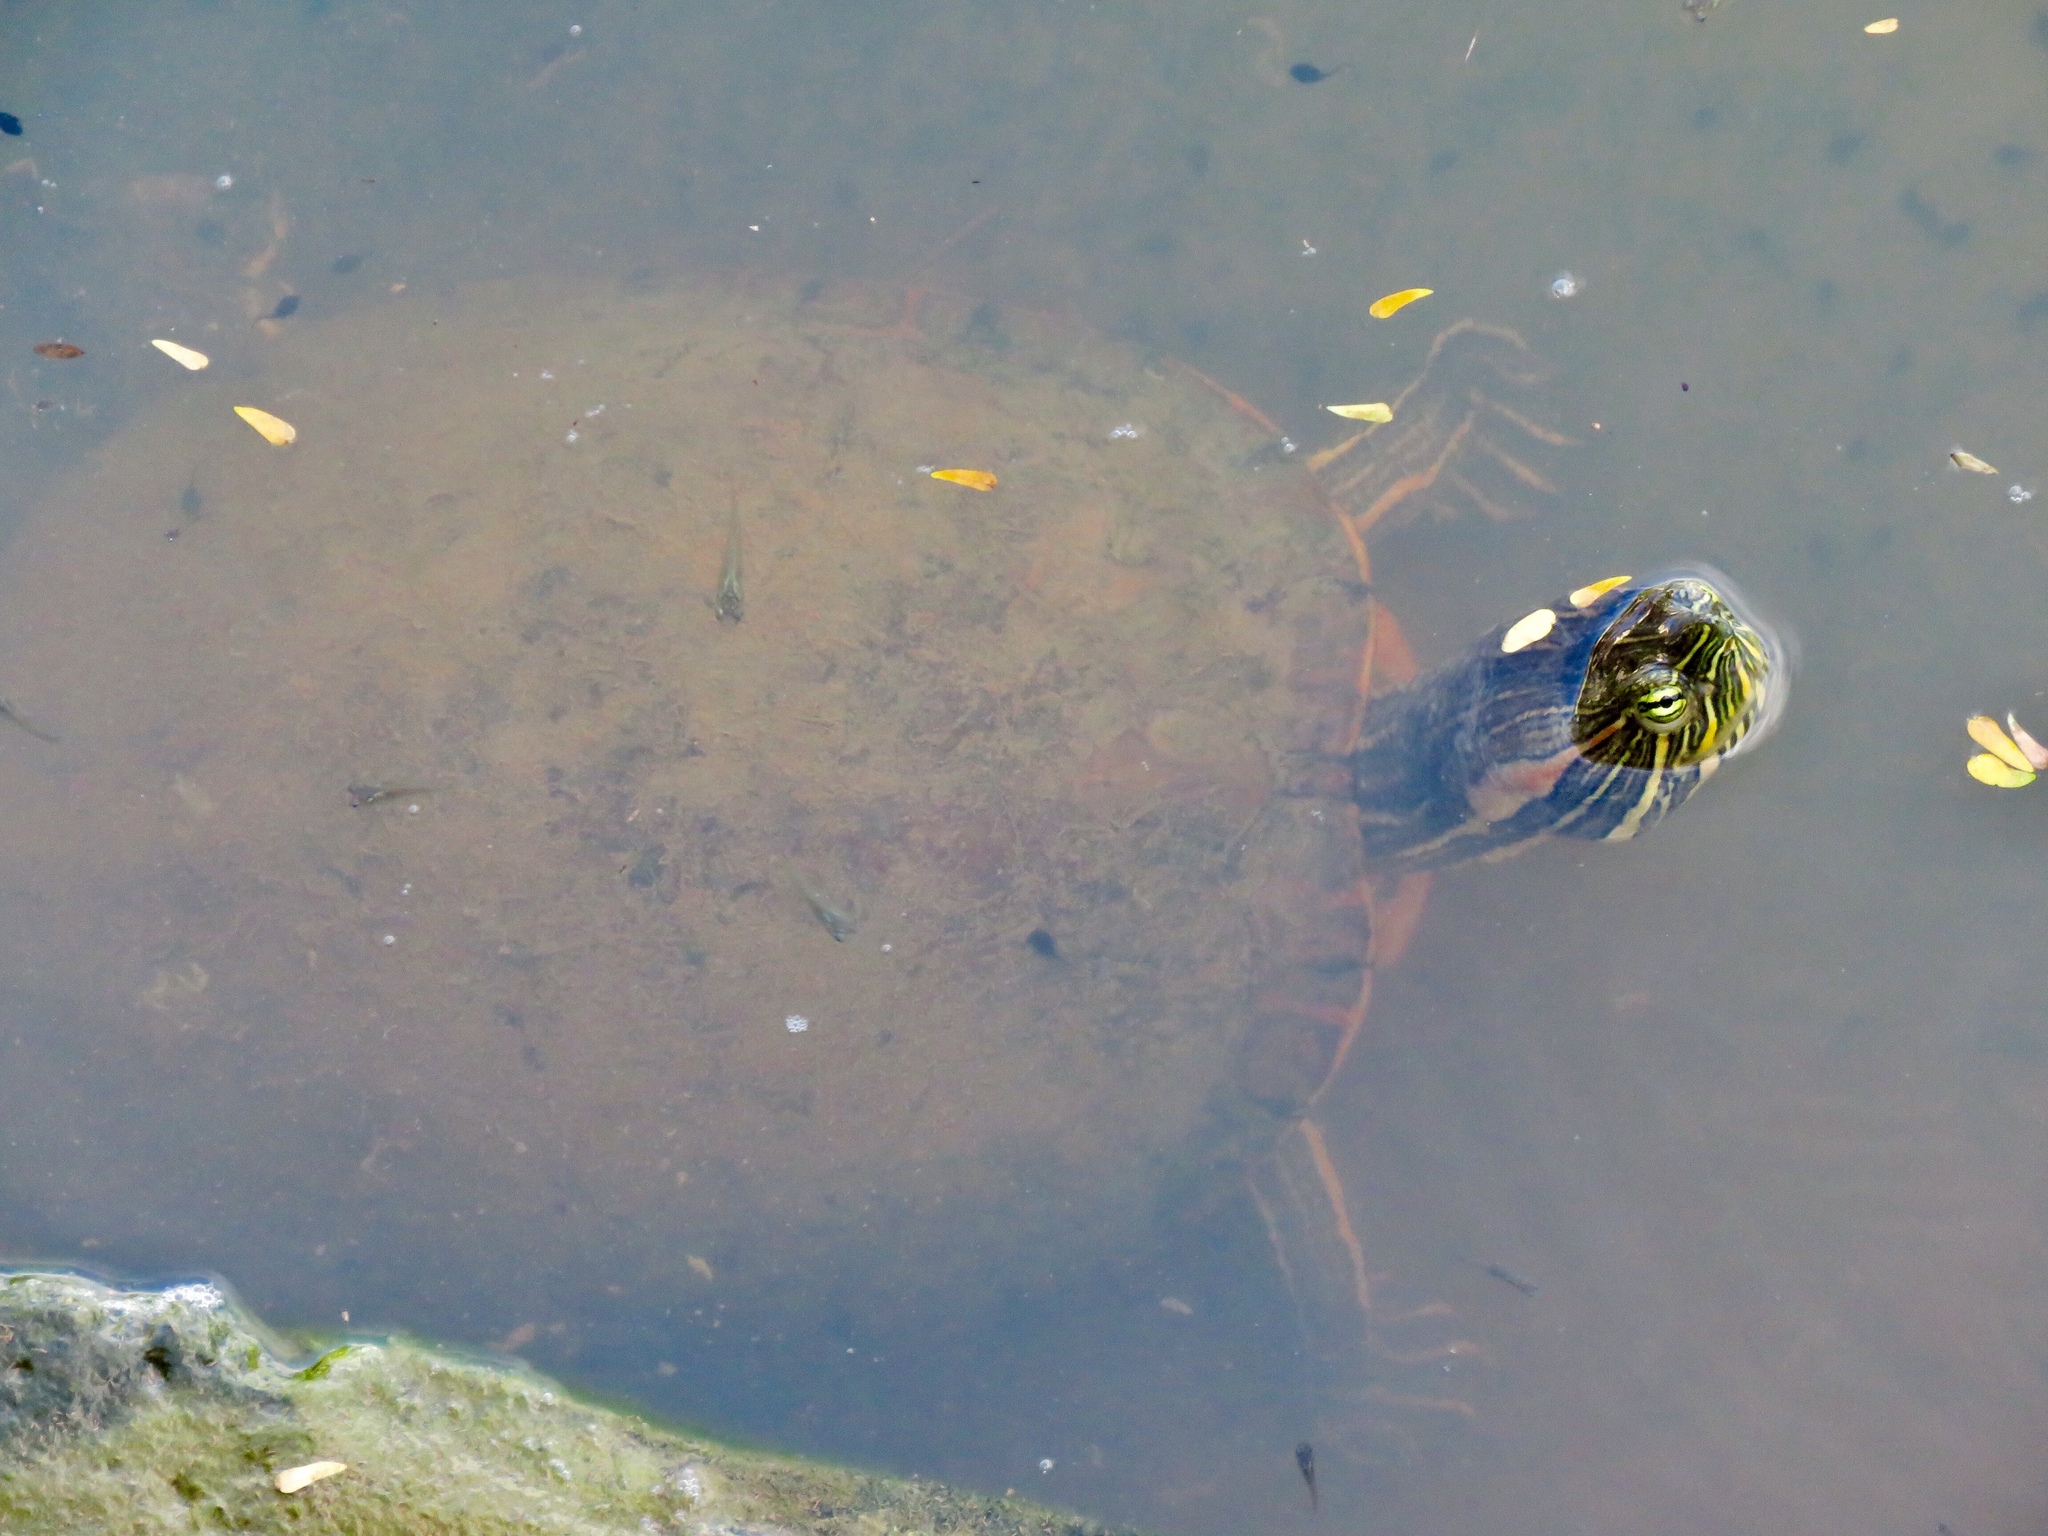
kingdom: Animalia
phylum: Chordata
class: Testudines
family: Emydidae
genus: Trachemys
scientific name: Trachemys grayi
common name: Gray's slider
